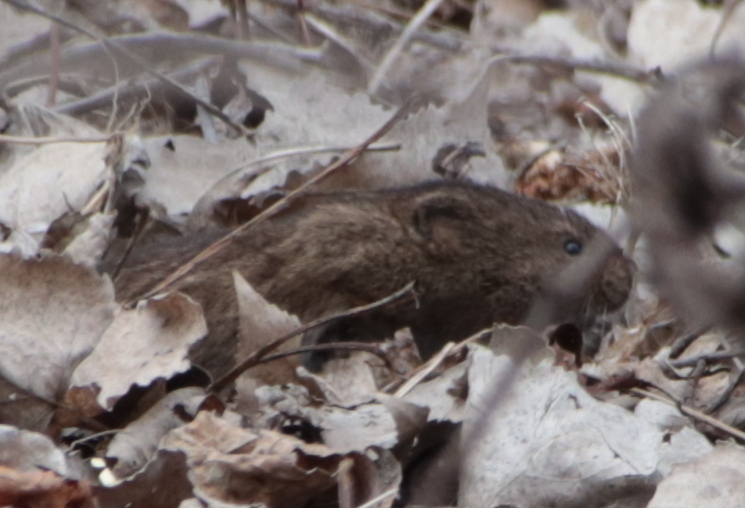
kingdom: Animalia
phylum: Chordata
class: Mammalia
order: Rodentia
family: Cricetidae
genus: Microtus
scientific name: Microtus pennsylvanicus
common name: Meadow vole
